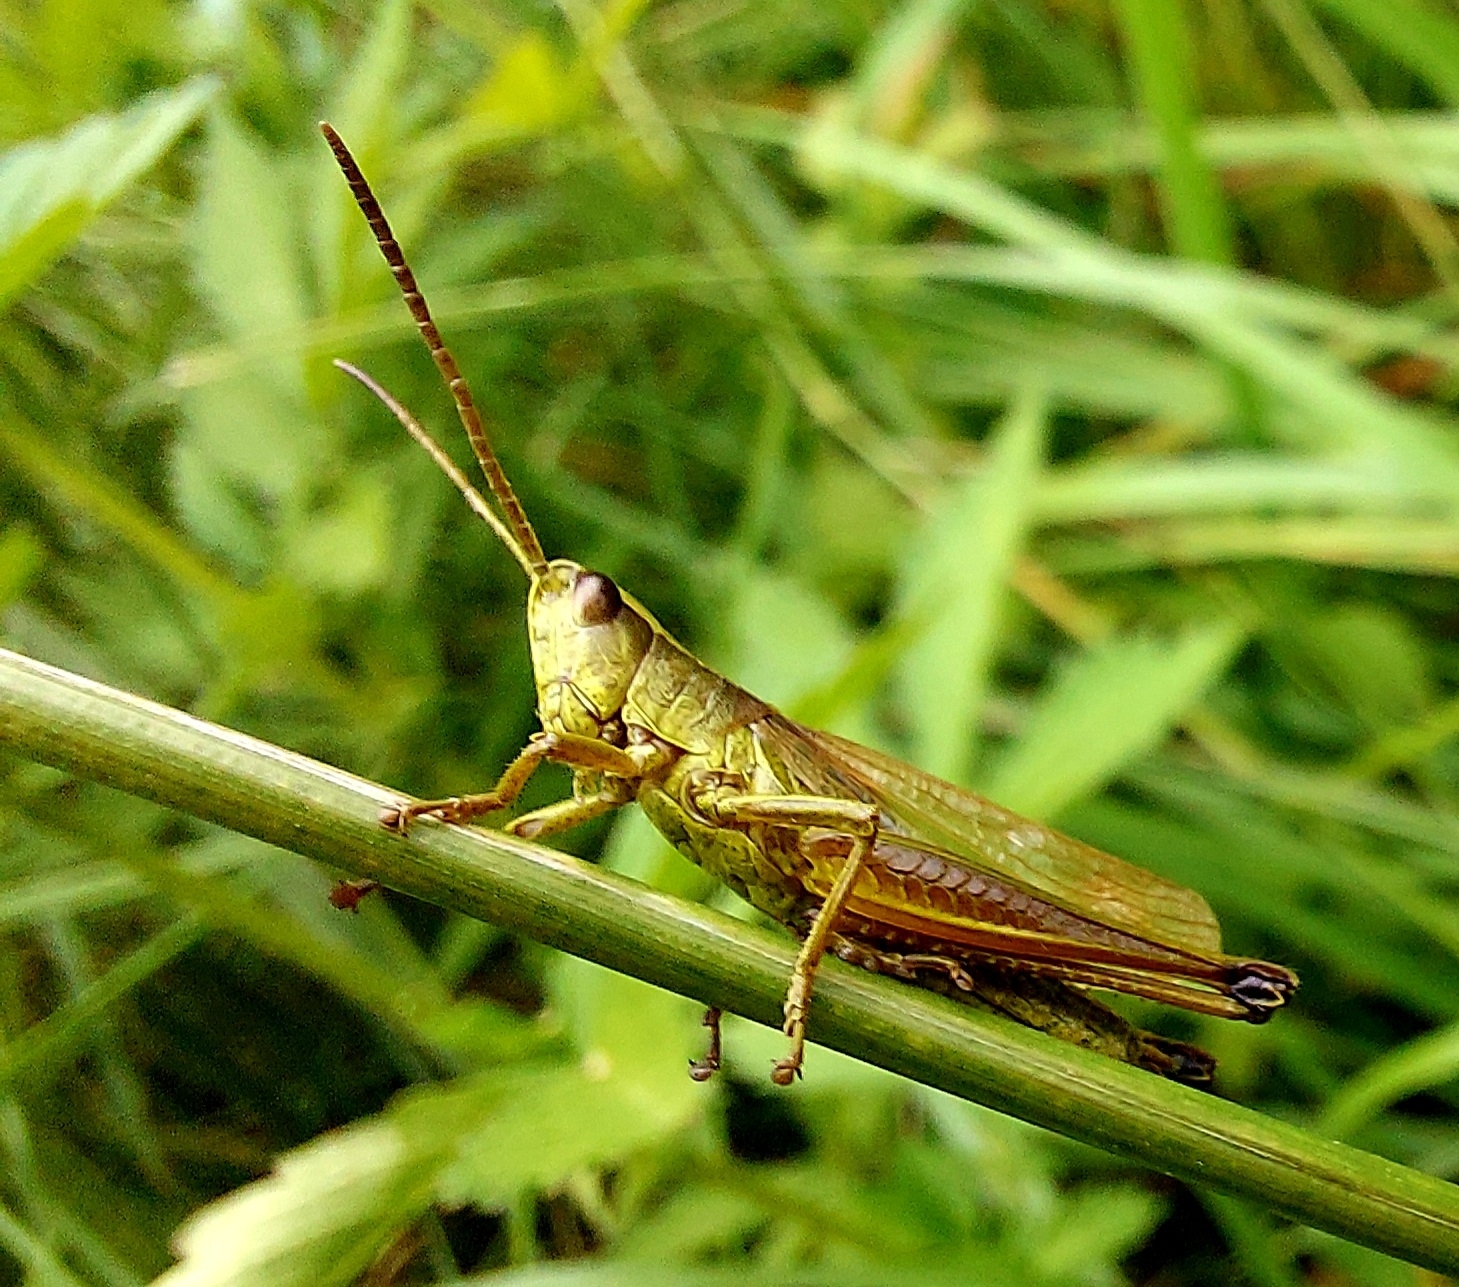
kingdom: Animalia
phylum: Arthropoda
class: Insecta
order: Orthoptera
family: Acrididae
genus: Chrysochraon
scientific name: Chrysochraon dispar
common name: Large gold grasshopper
